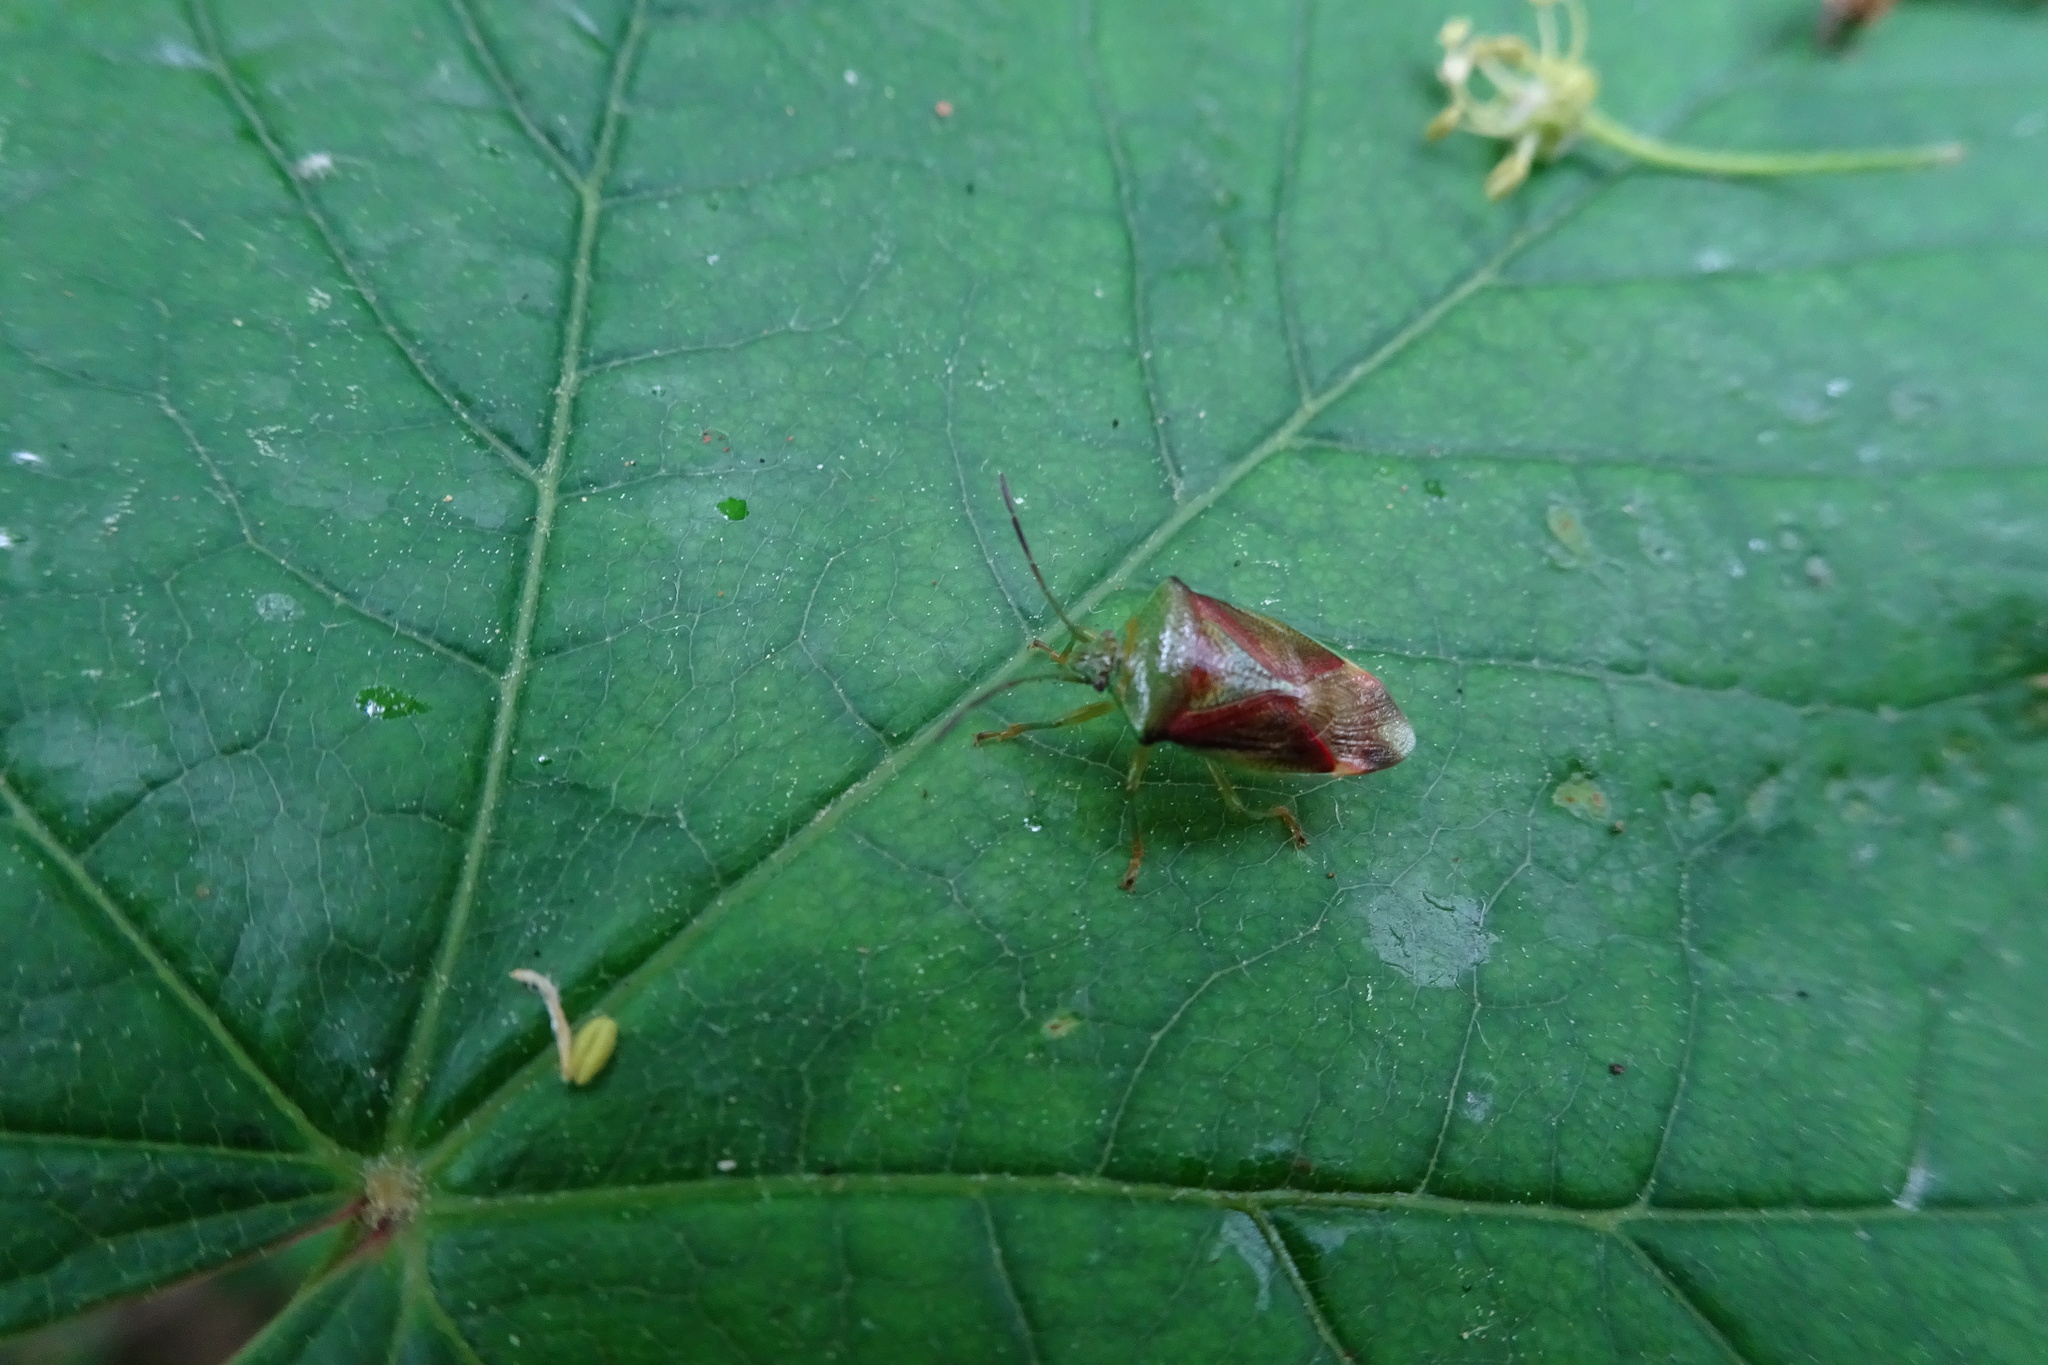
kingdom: Animalia
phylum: Arthropoda
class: Insecta
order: Hemiptera
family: Acanthosomatidae
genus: Elasmostethus
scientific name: Elasmostethus interstinctus
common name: Birch shieldbug
